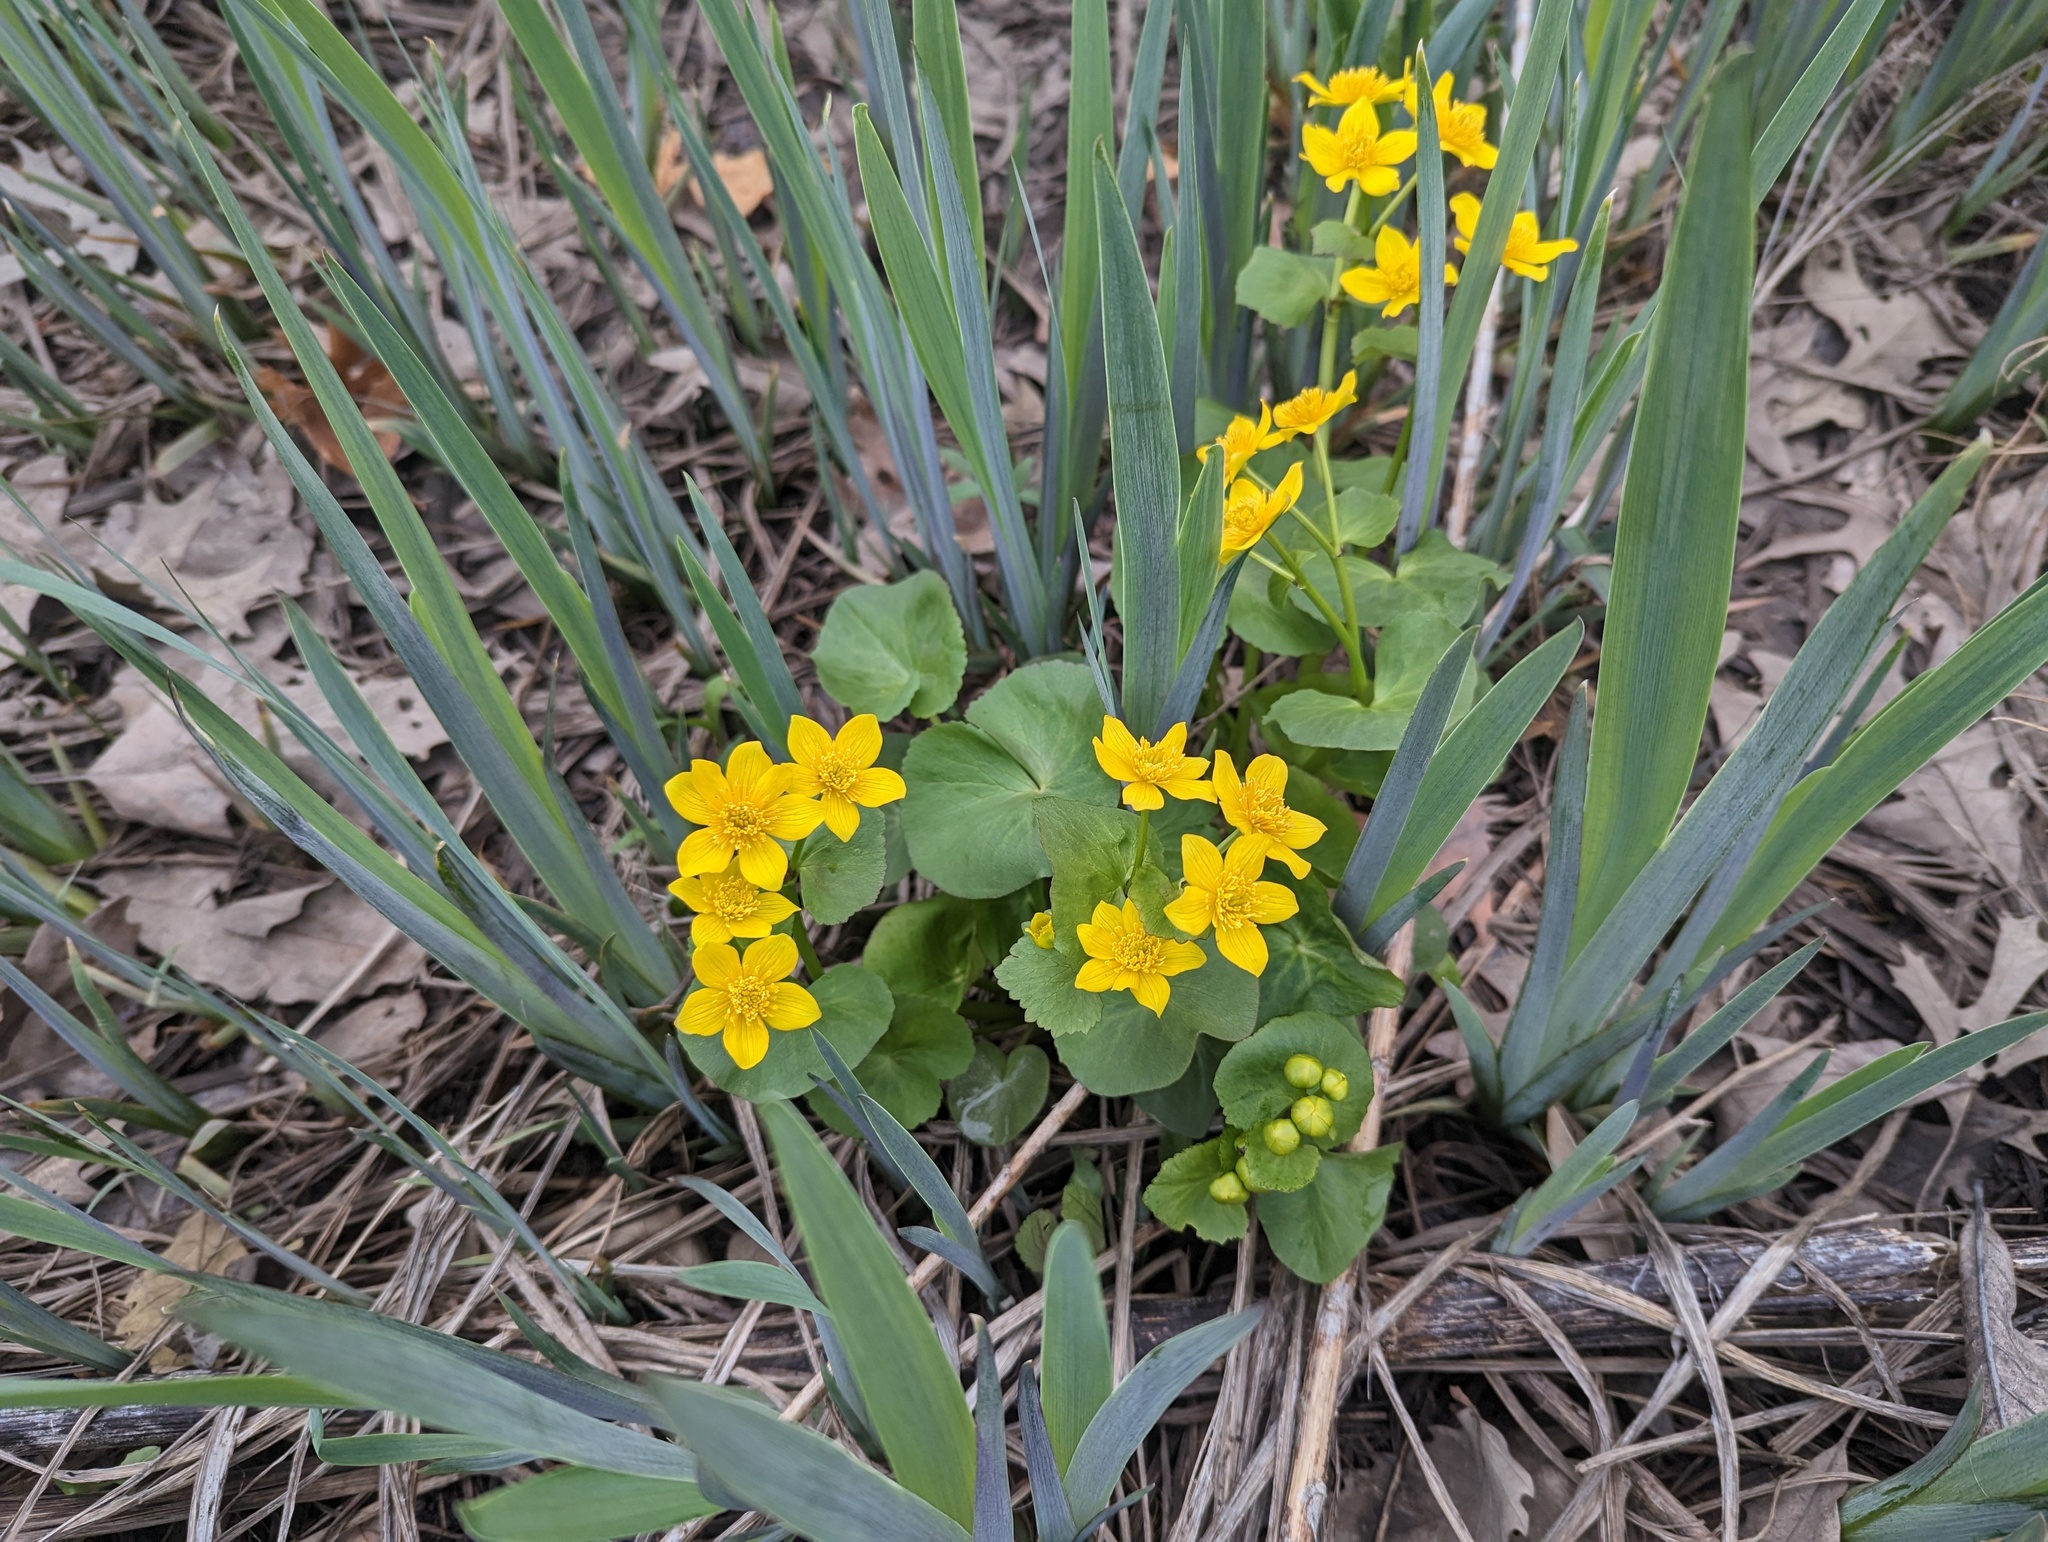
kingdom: Plantae
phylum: Tracheophyta
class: Magnoliopsida
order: Ranunculales
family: Ranunculaceae
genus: Caltha
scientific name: Caltha palustris
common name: Marsh marigold
